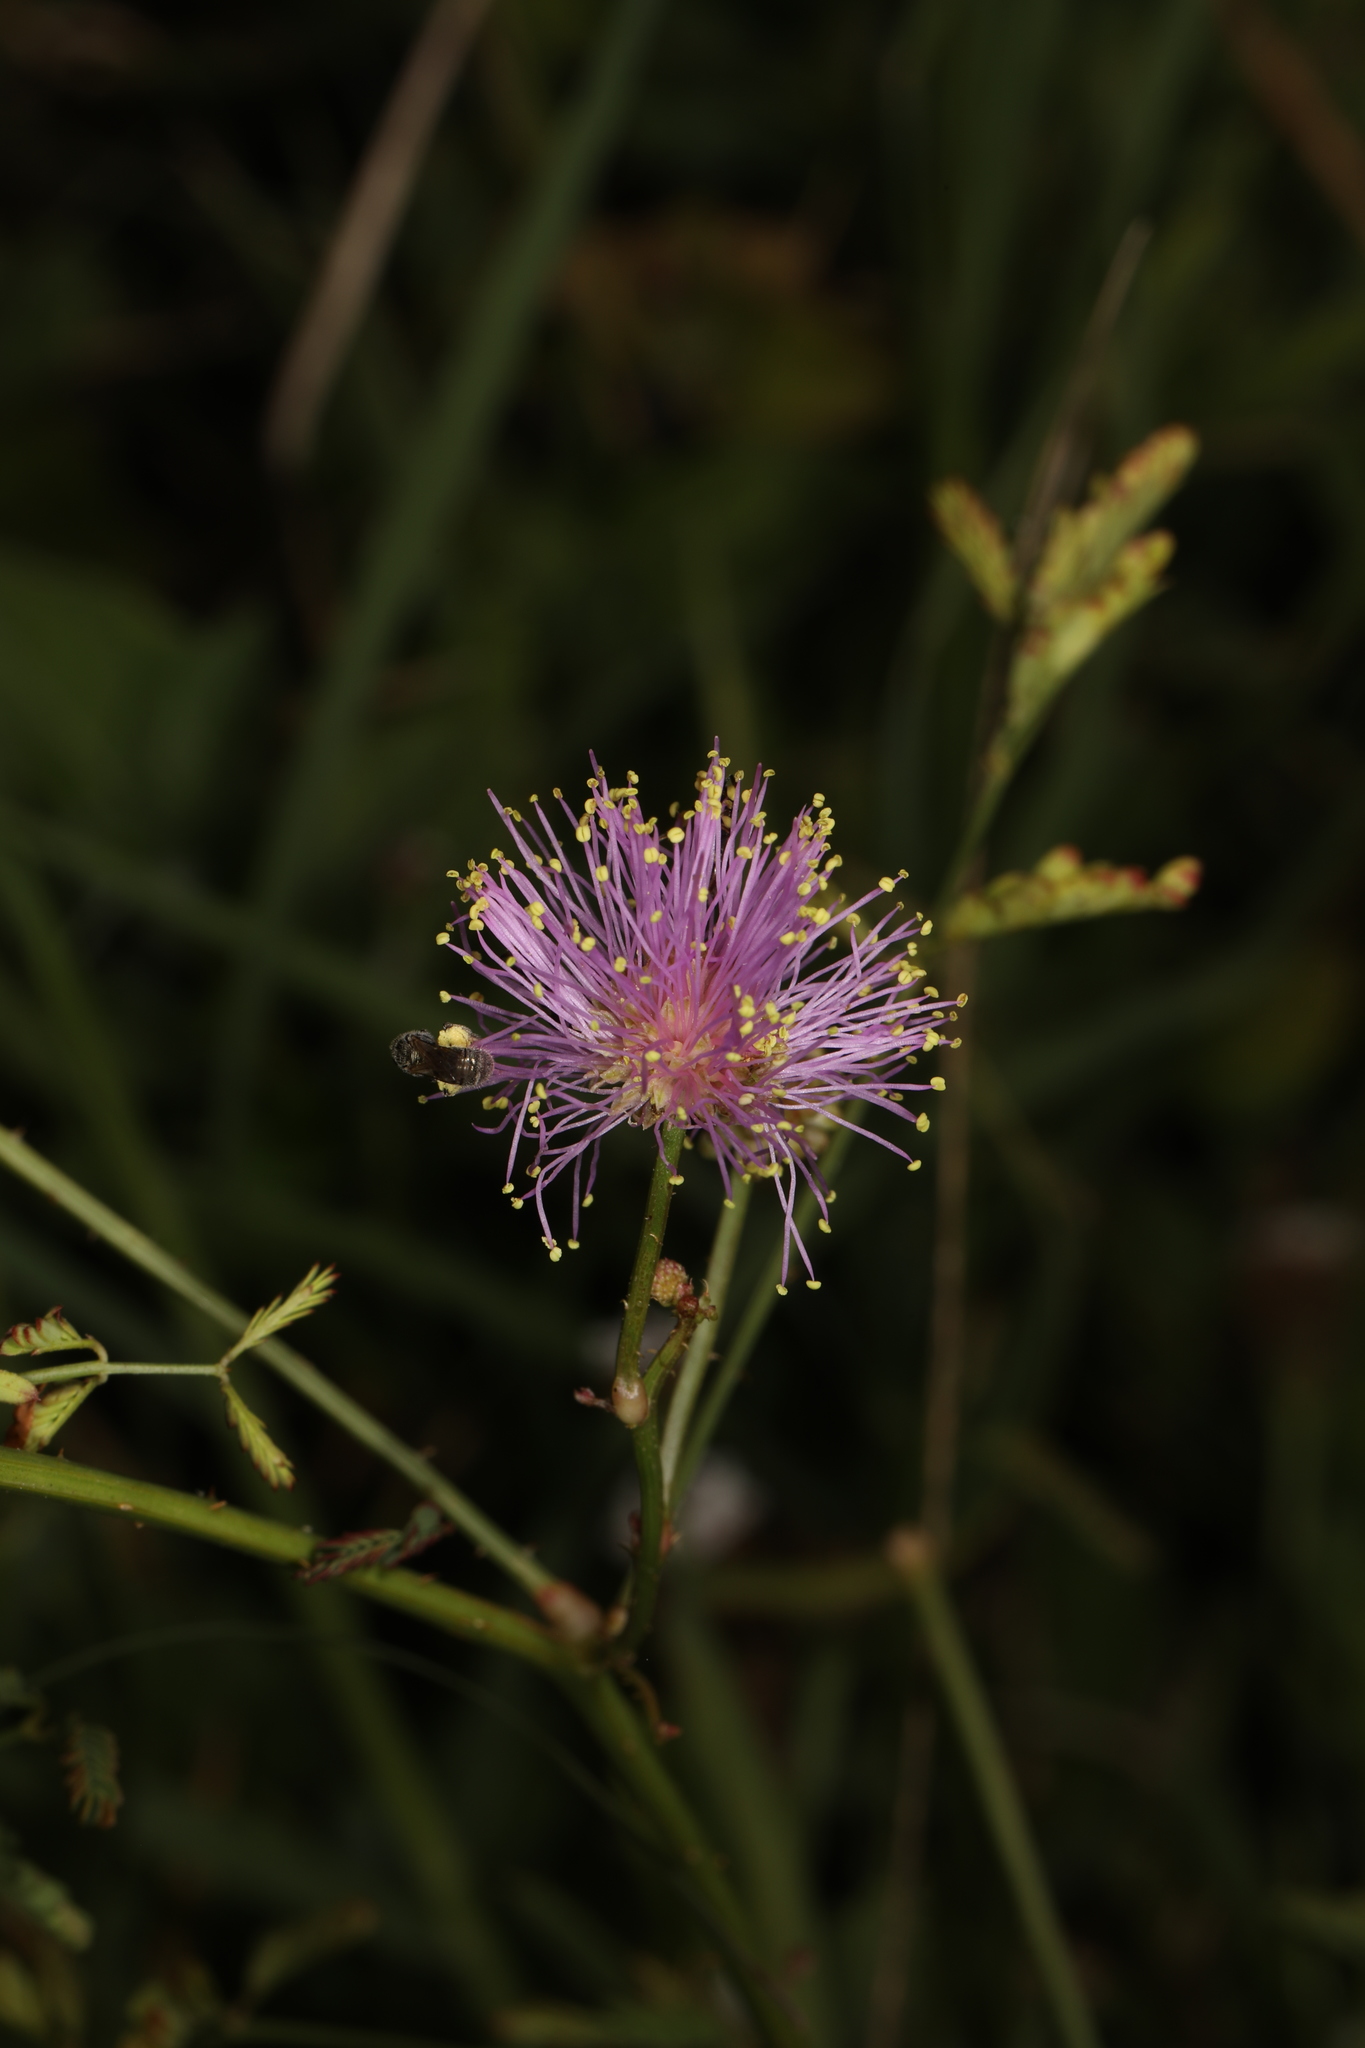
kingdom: Plantae
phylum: Tracheophyta
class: Magnoliopsida
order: Fabales
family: Fabaceae
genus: Mimosa
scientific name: Mimosa quadrivalvis
